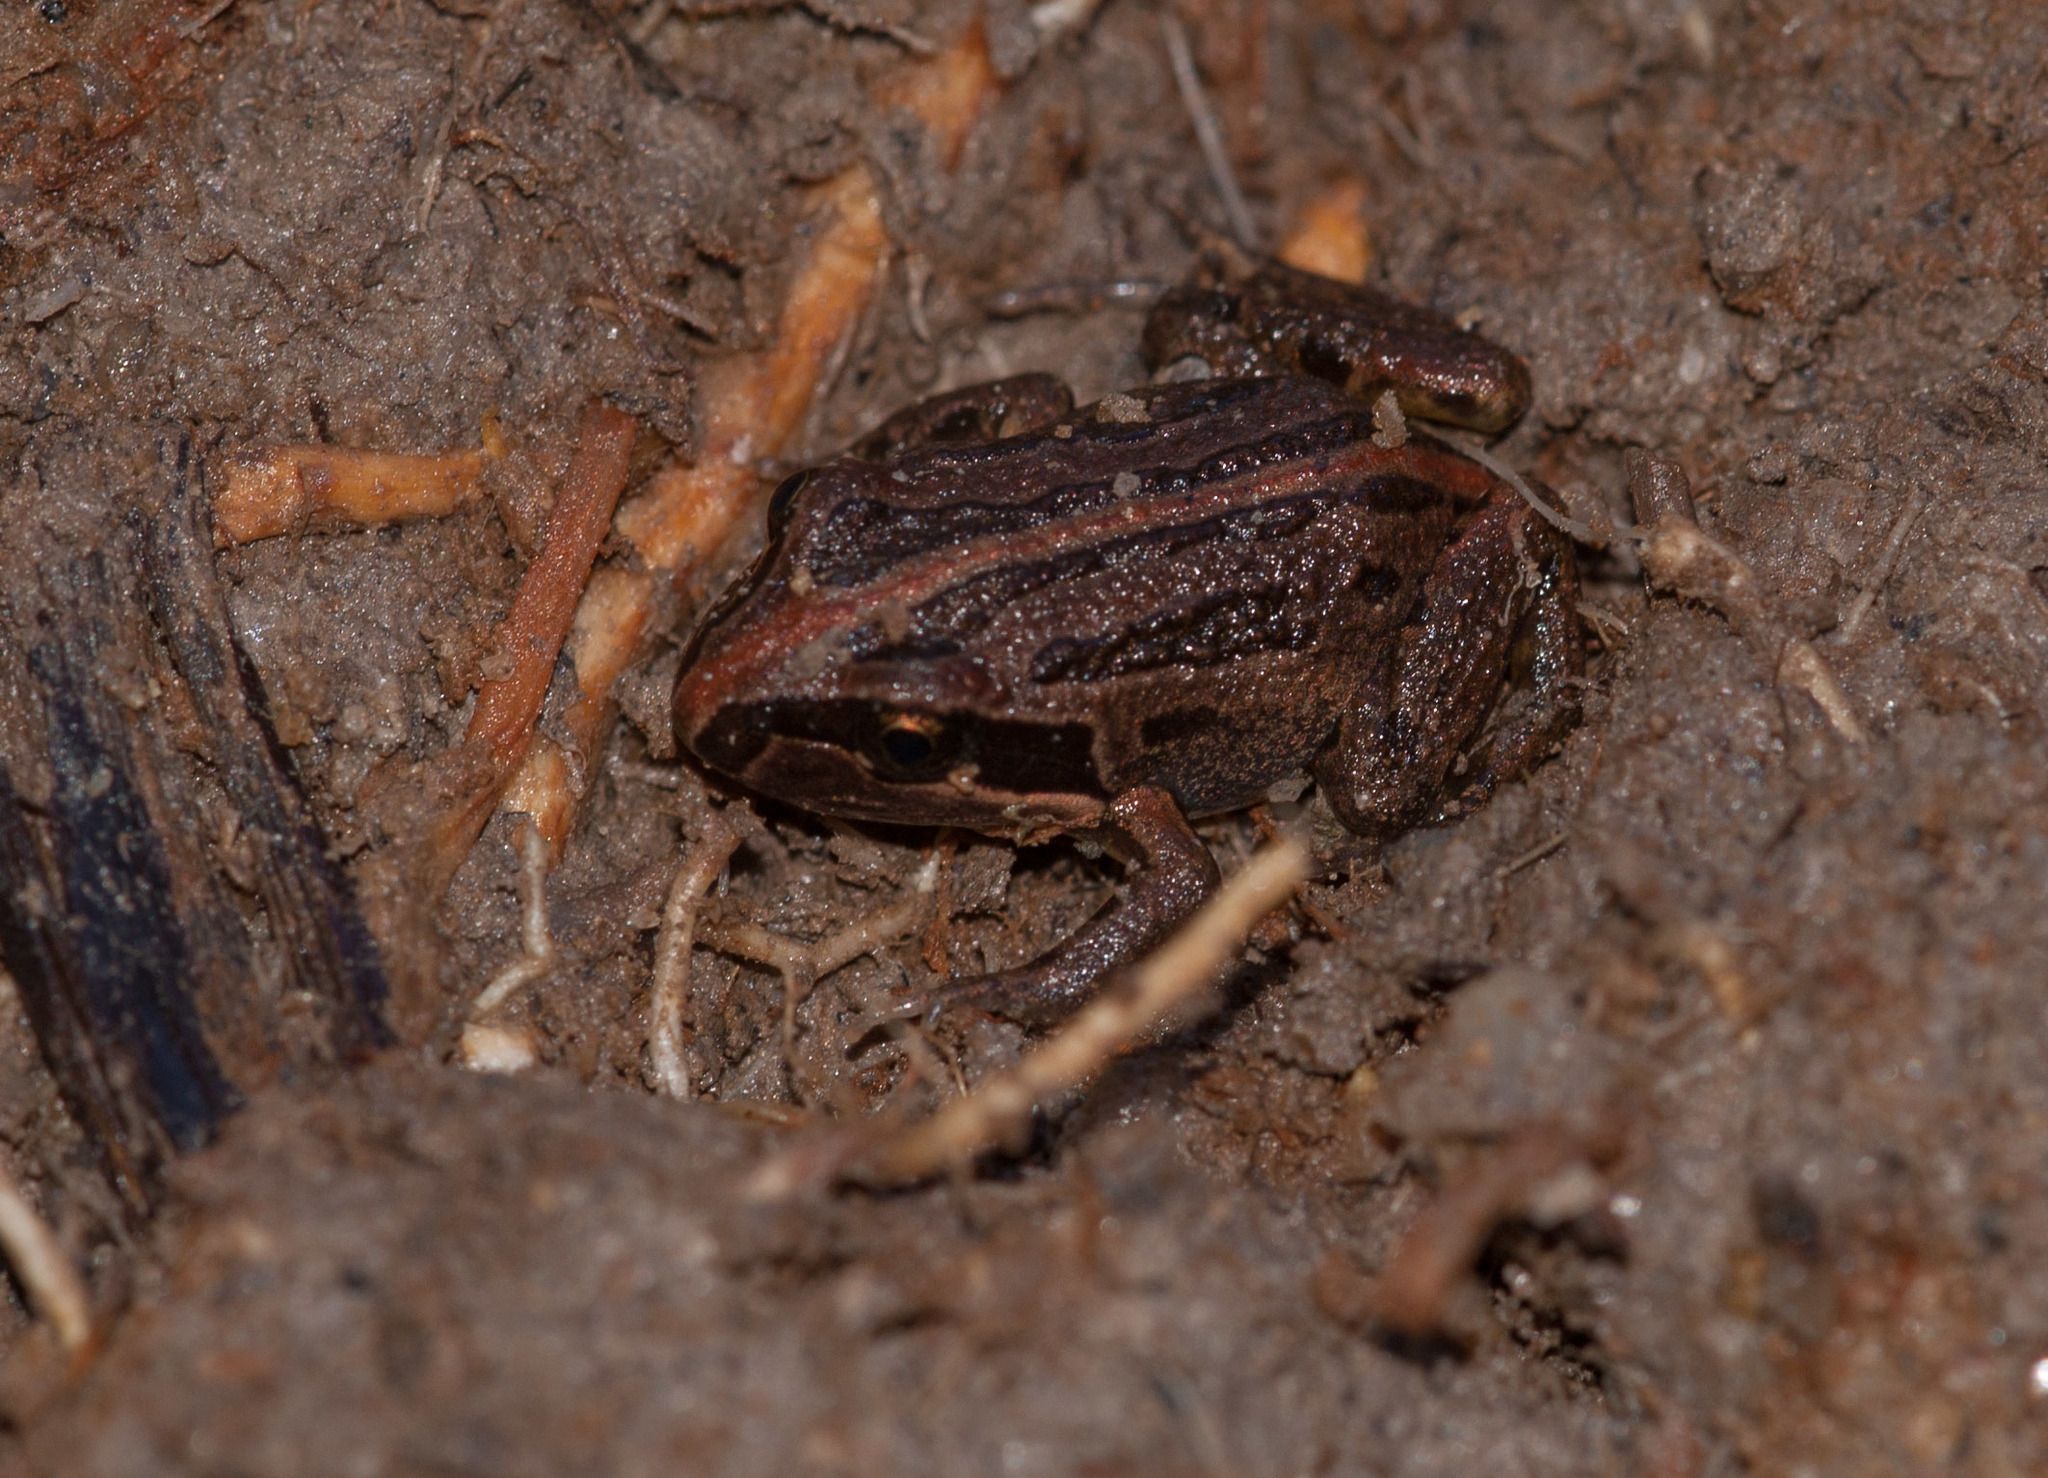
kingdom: Animalia
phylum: Chordata
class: Amphibia
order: Anura
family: Limnodynastidae
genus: Limnodynastes
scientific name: Limnodynastes peronii
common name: Brown frog
